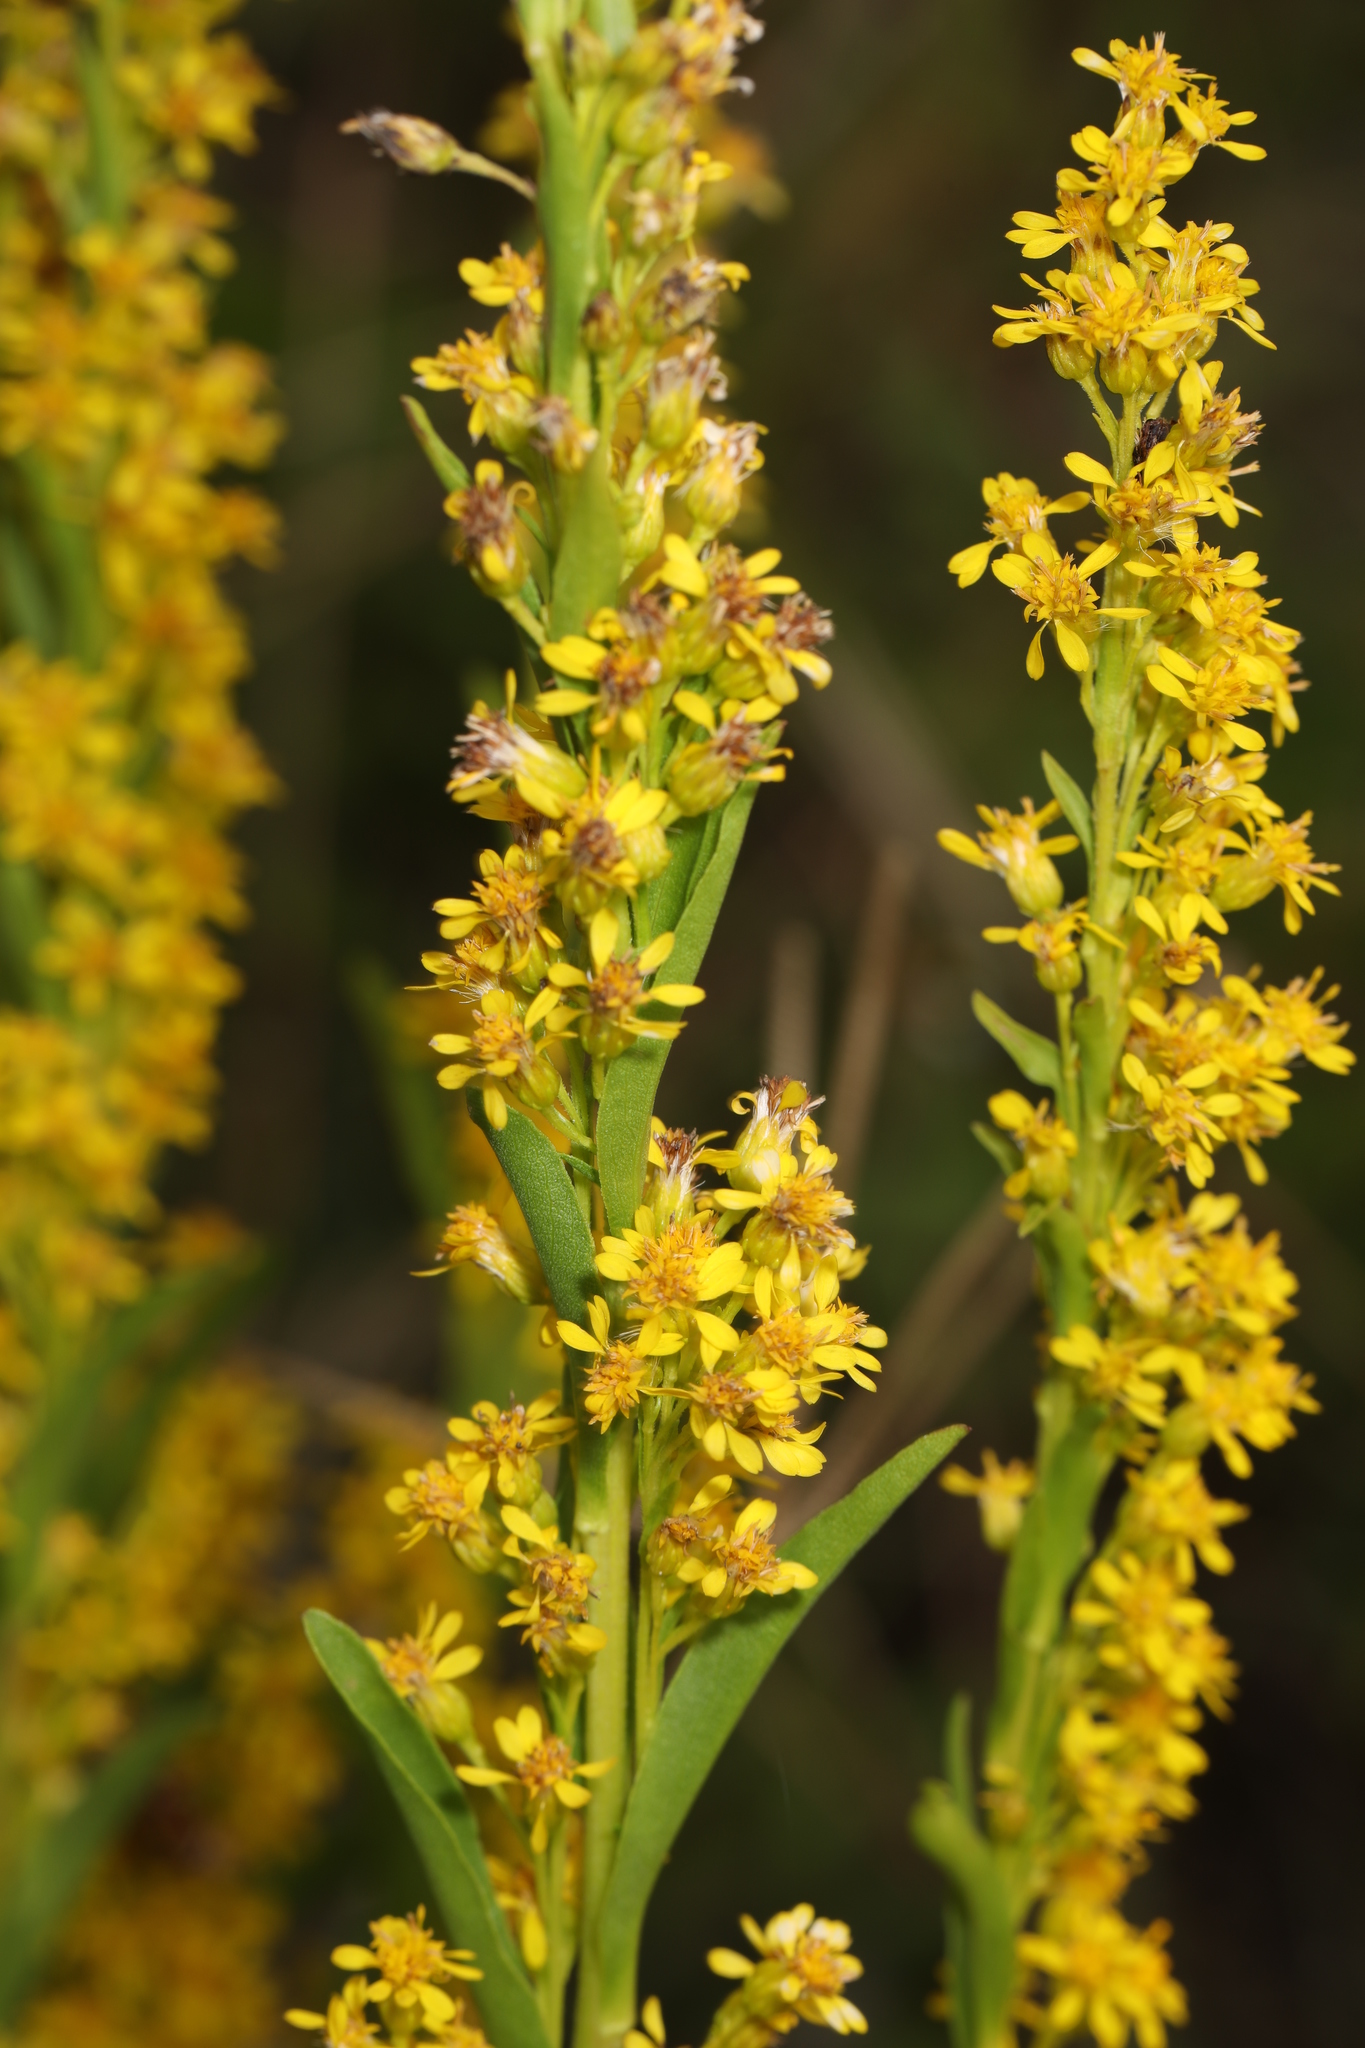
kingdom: Plantae
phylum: Tracheophyta
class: Magnoliopsida
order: Asterales
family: Asteraceae
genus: Solidago
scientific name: Solidago mexicana
